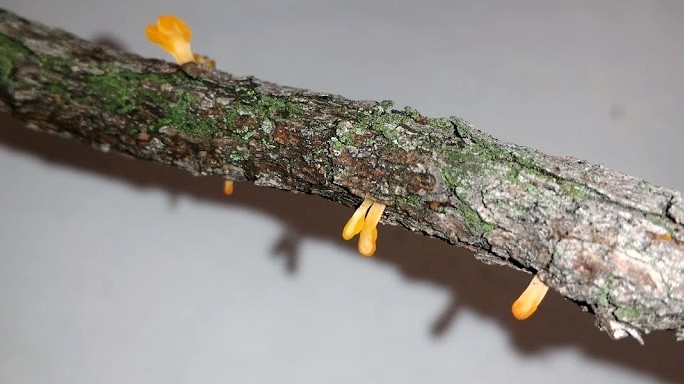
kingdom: Fungi
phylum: Basidiomycota
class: Dacrymycetes
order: Dacrymycetales
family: Dacrymycetaceae
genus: Dacrymyces
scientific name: Dacrymyces spathularius
